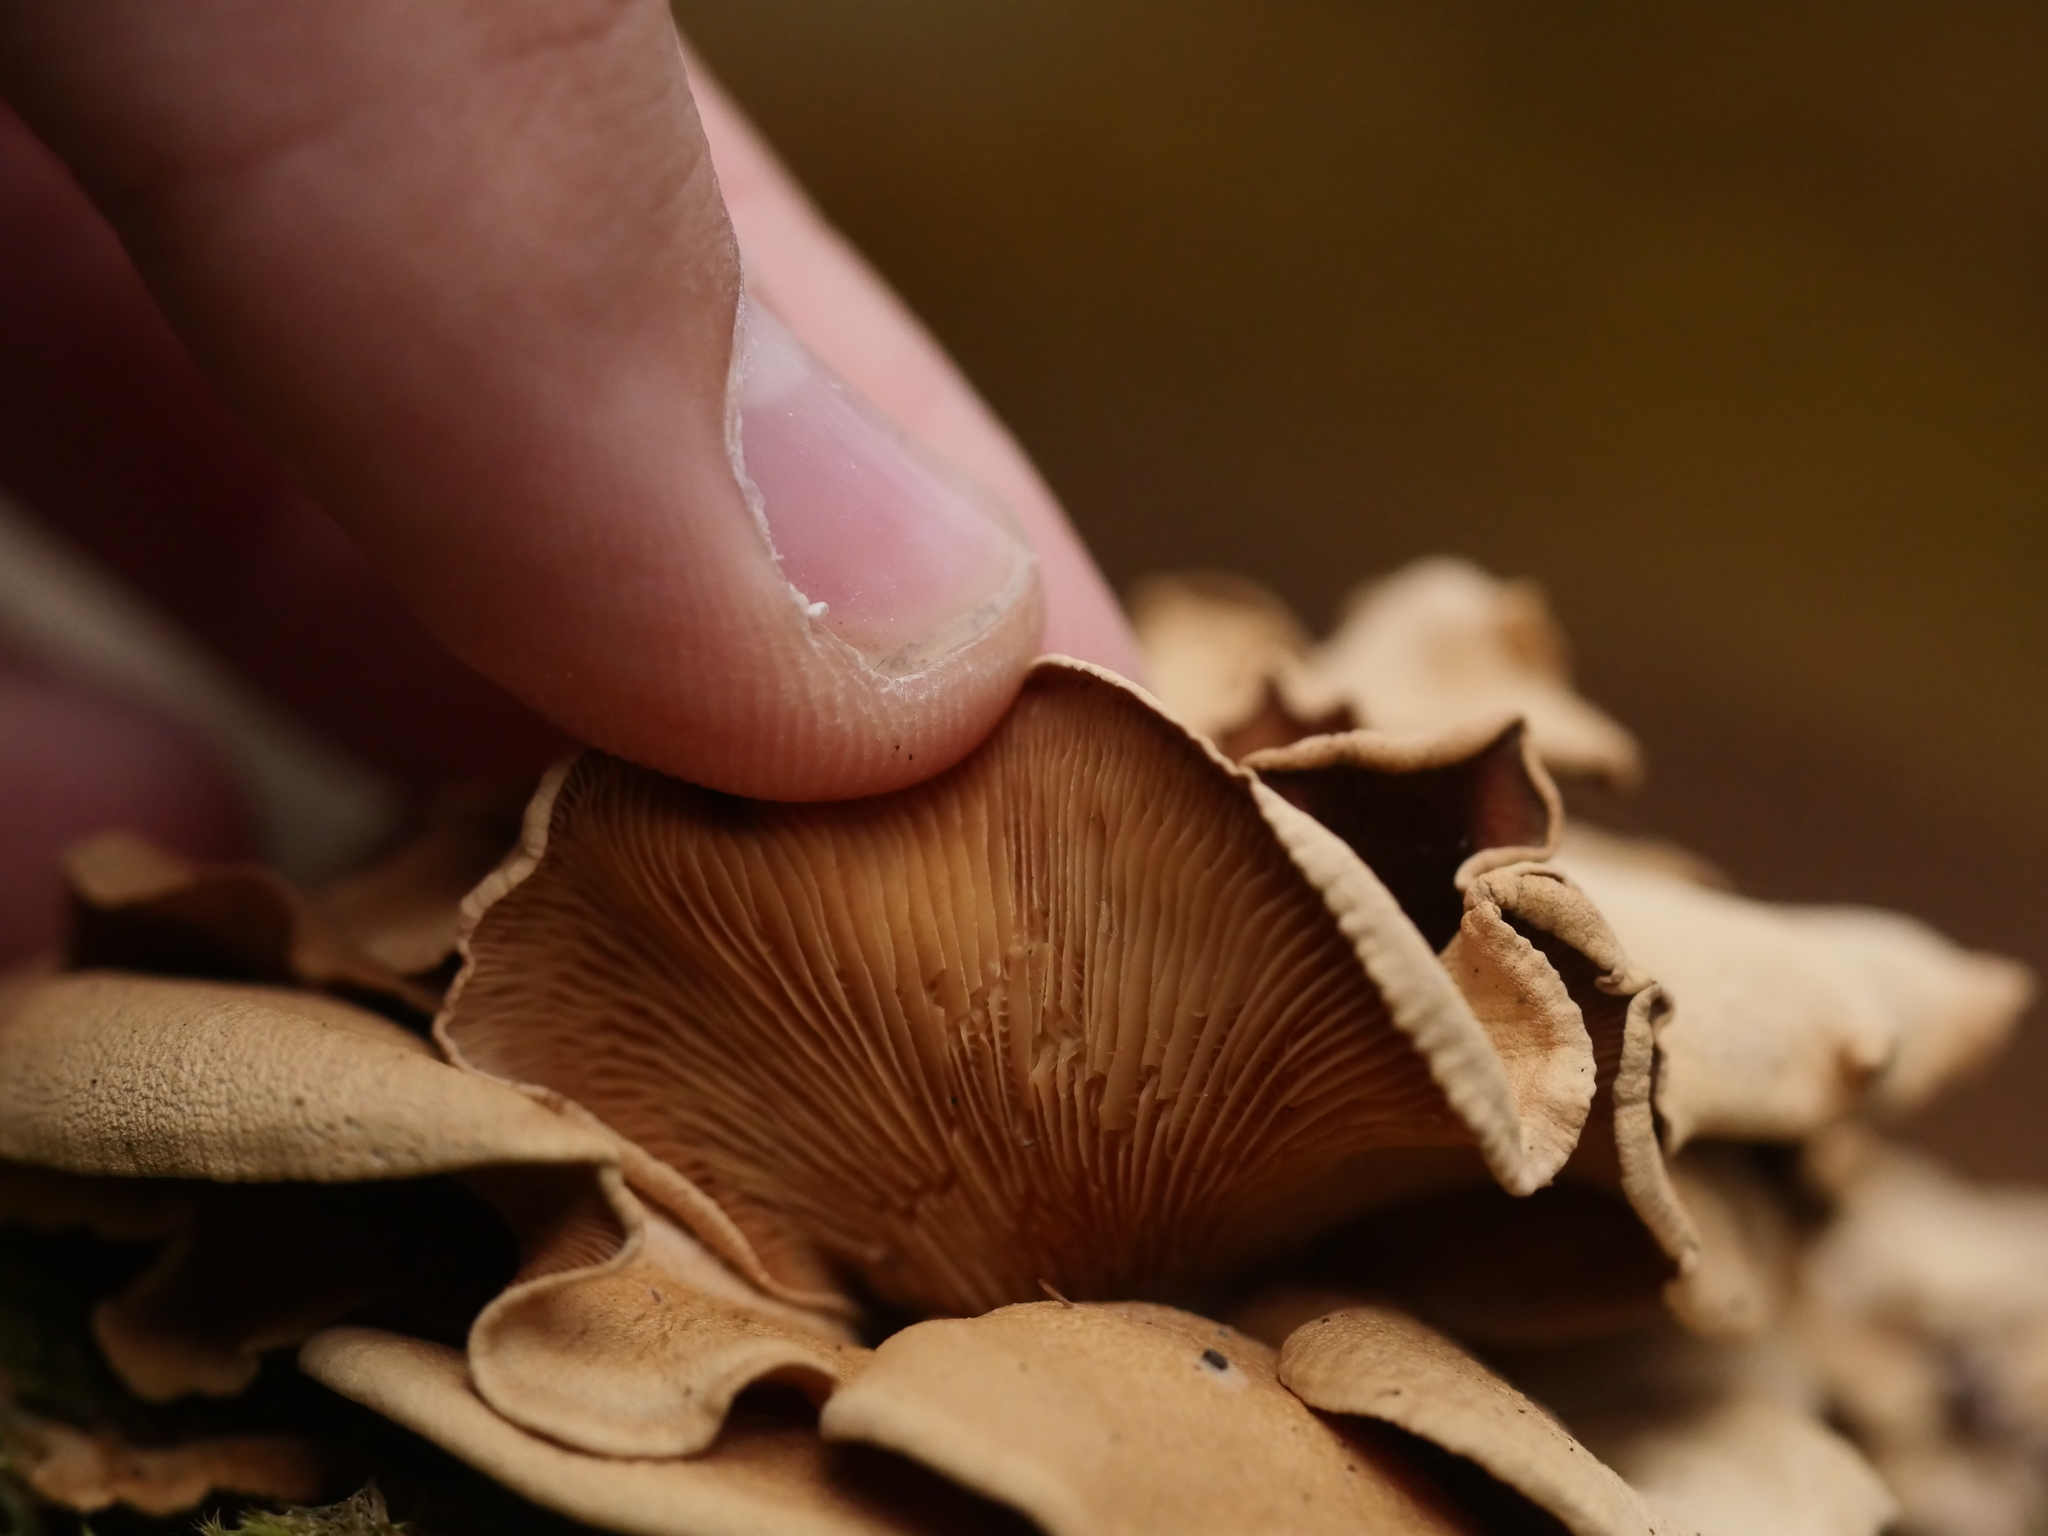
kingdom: Fungi
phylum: Basidiomycota
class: Agaricomycetes
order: Agaricales
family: Mycenaceae
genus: Panellus
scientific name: Panellus stipticus
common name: Bitter oysterling
